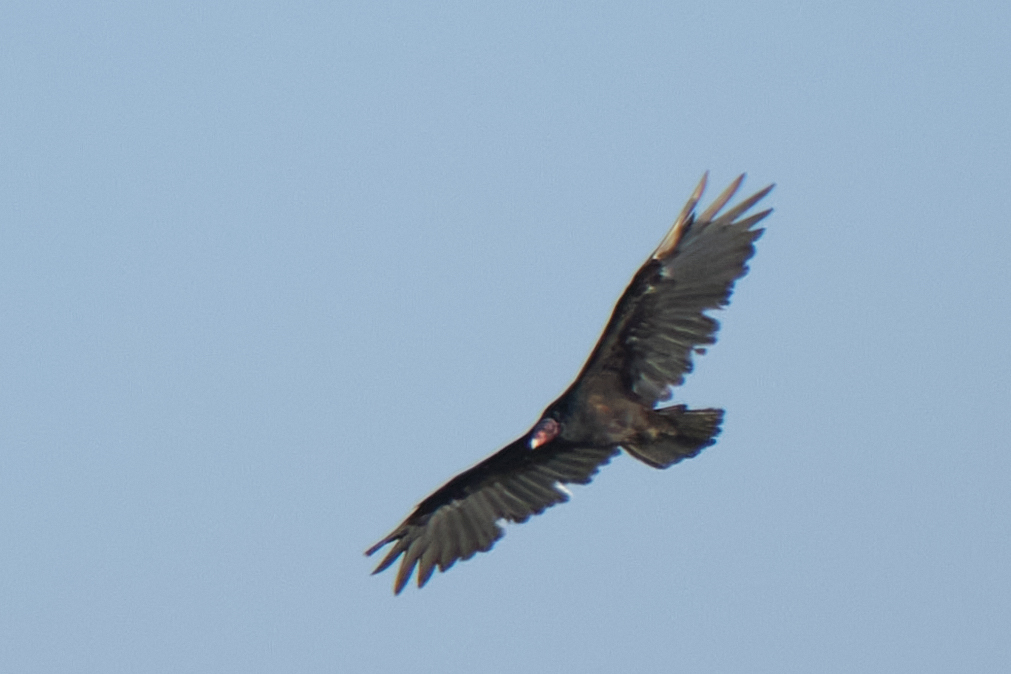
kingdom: Animalia
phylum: Chordata
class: Aves
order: Accipitriformes
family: Cathartidae
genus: Cathartes
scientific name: Cathartes aura
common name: Turkey vulture
